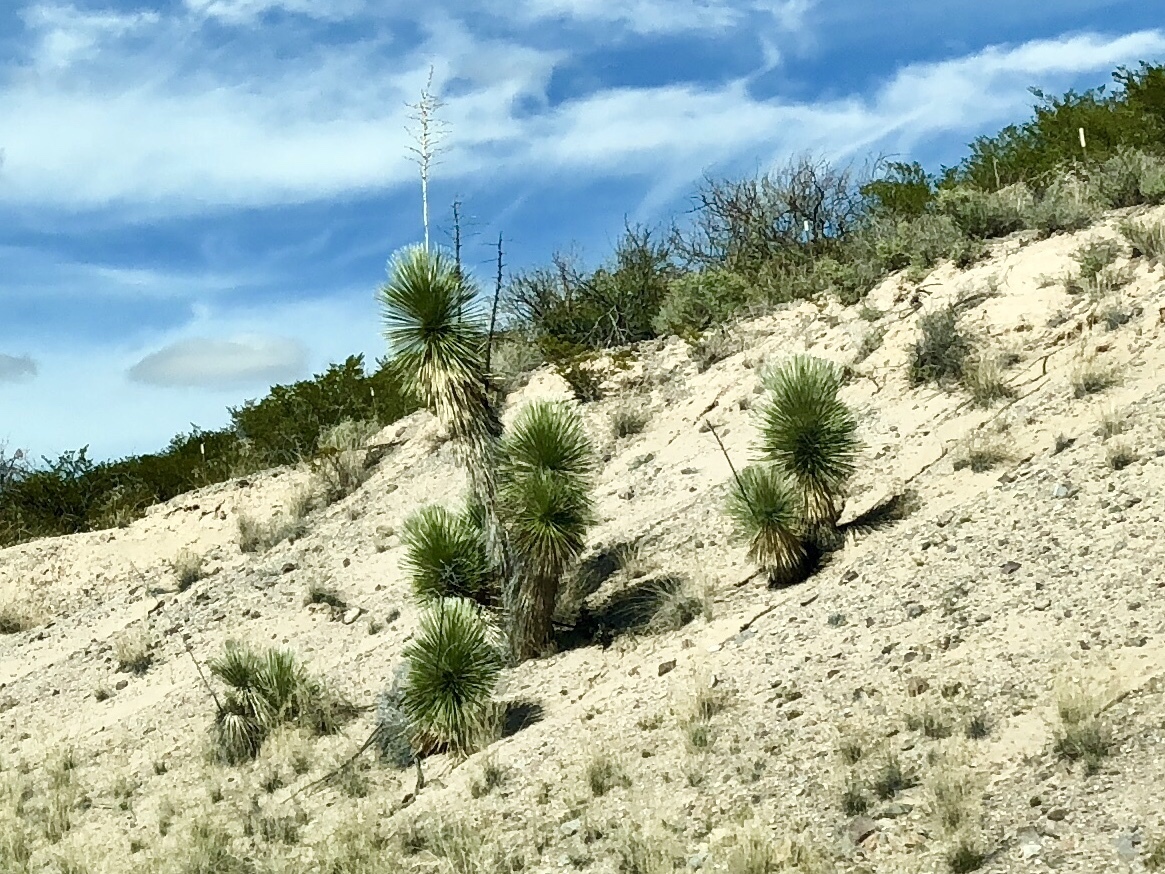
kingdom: Plantae
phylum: Tracheophyta
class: Liliopsida
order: Asparagales
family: Asparagaceae
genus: Yucca
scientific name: Yucca elata
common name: Palmella
